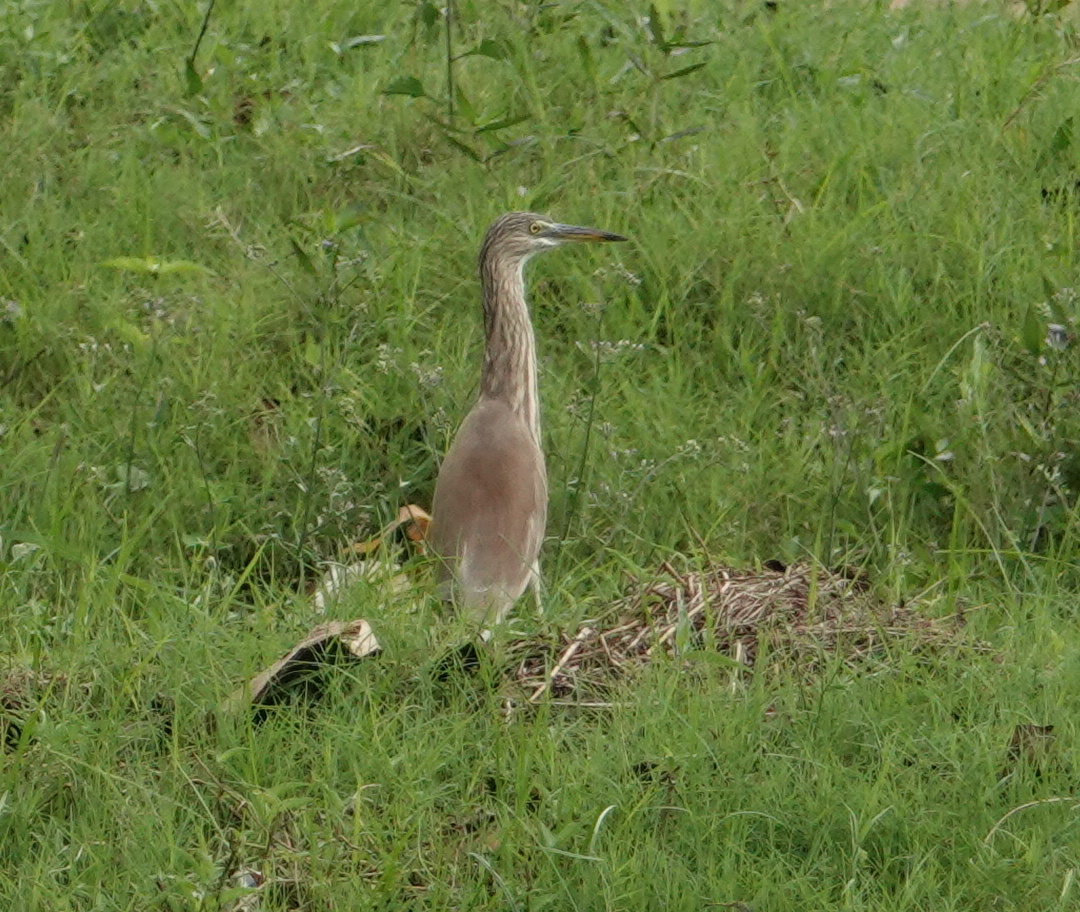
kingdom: Animalia
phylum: Chordata
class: Aves
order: Pelecaniformes
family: Ardeidae
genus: Ardeola
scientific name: Ardeola grayii
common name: Indian pond heron
